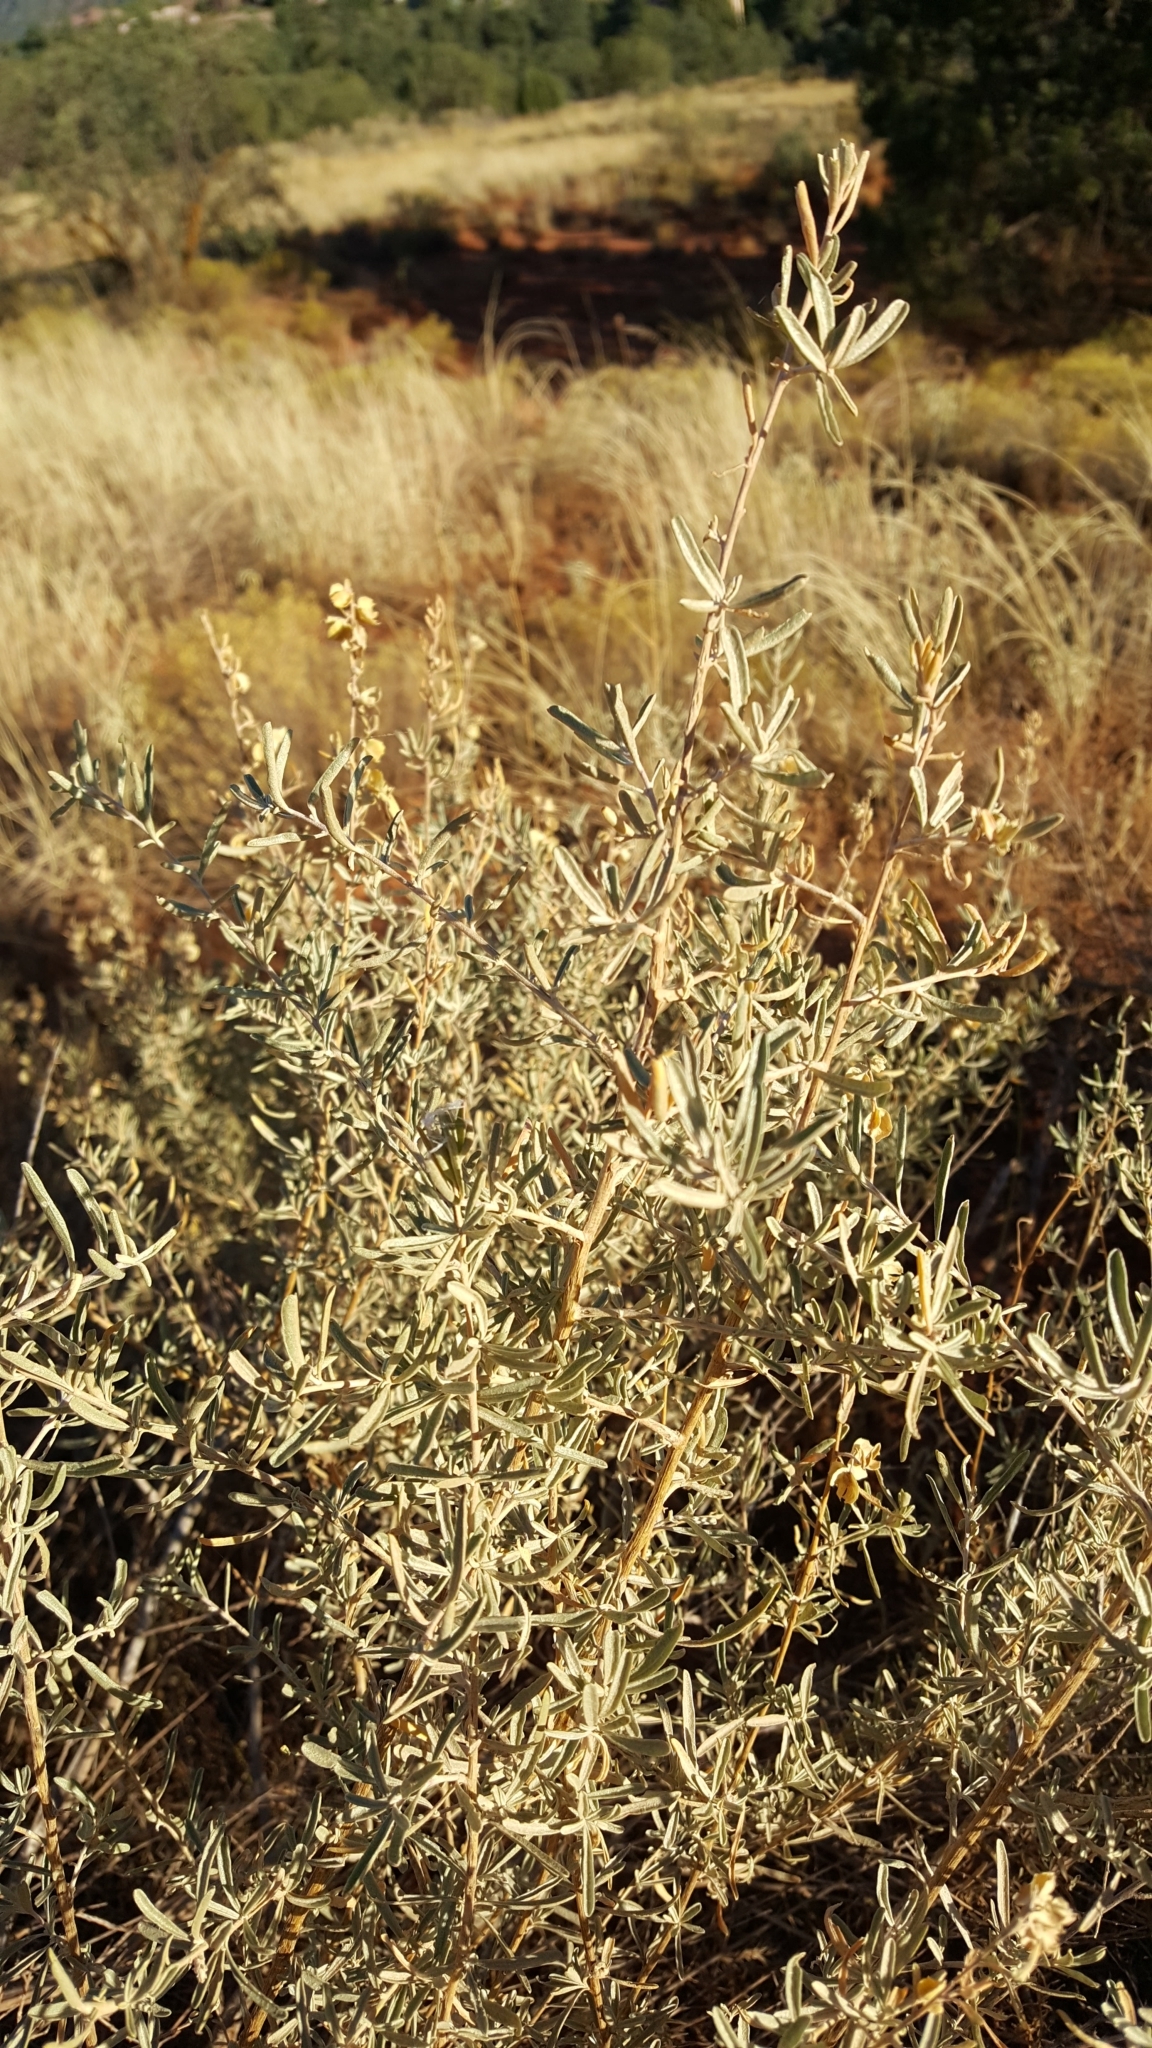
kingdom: Plantae
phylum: Tracheophyta
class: Magnoliopsida
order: Caryophyllales
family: Amaranthaceae
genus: Atriplex
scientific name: Atriplex canescens
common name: Four-wing saltbush
